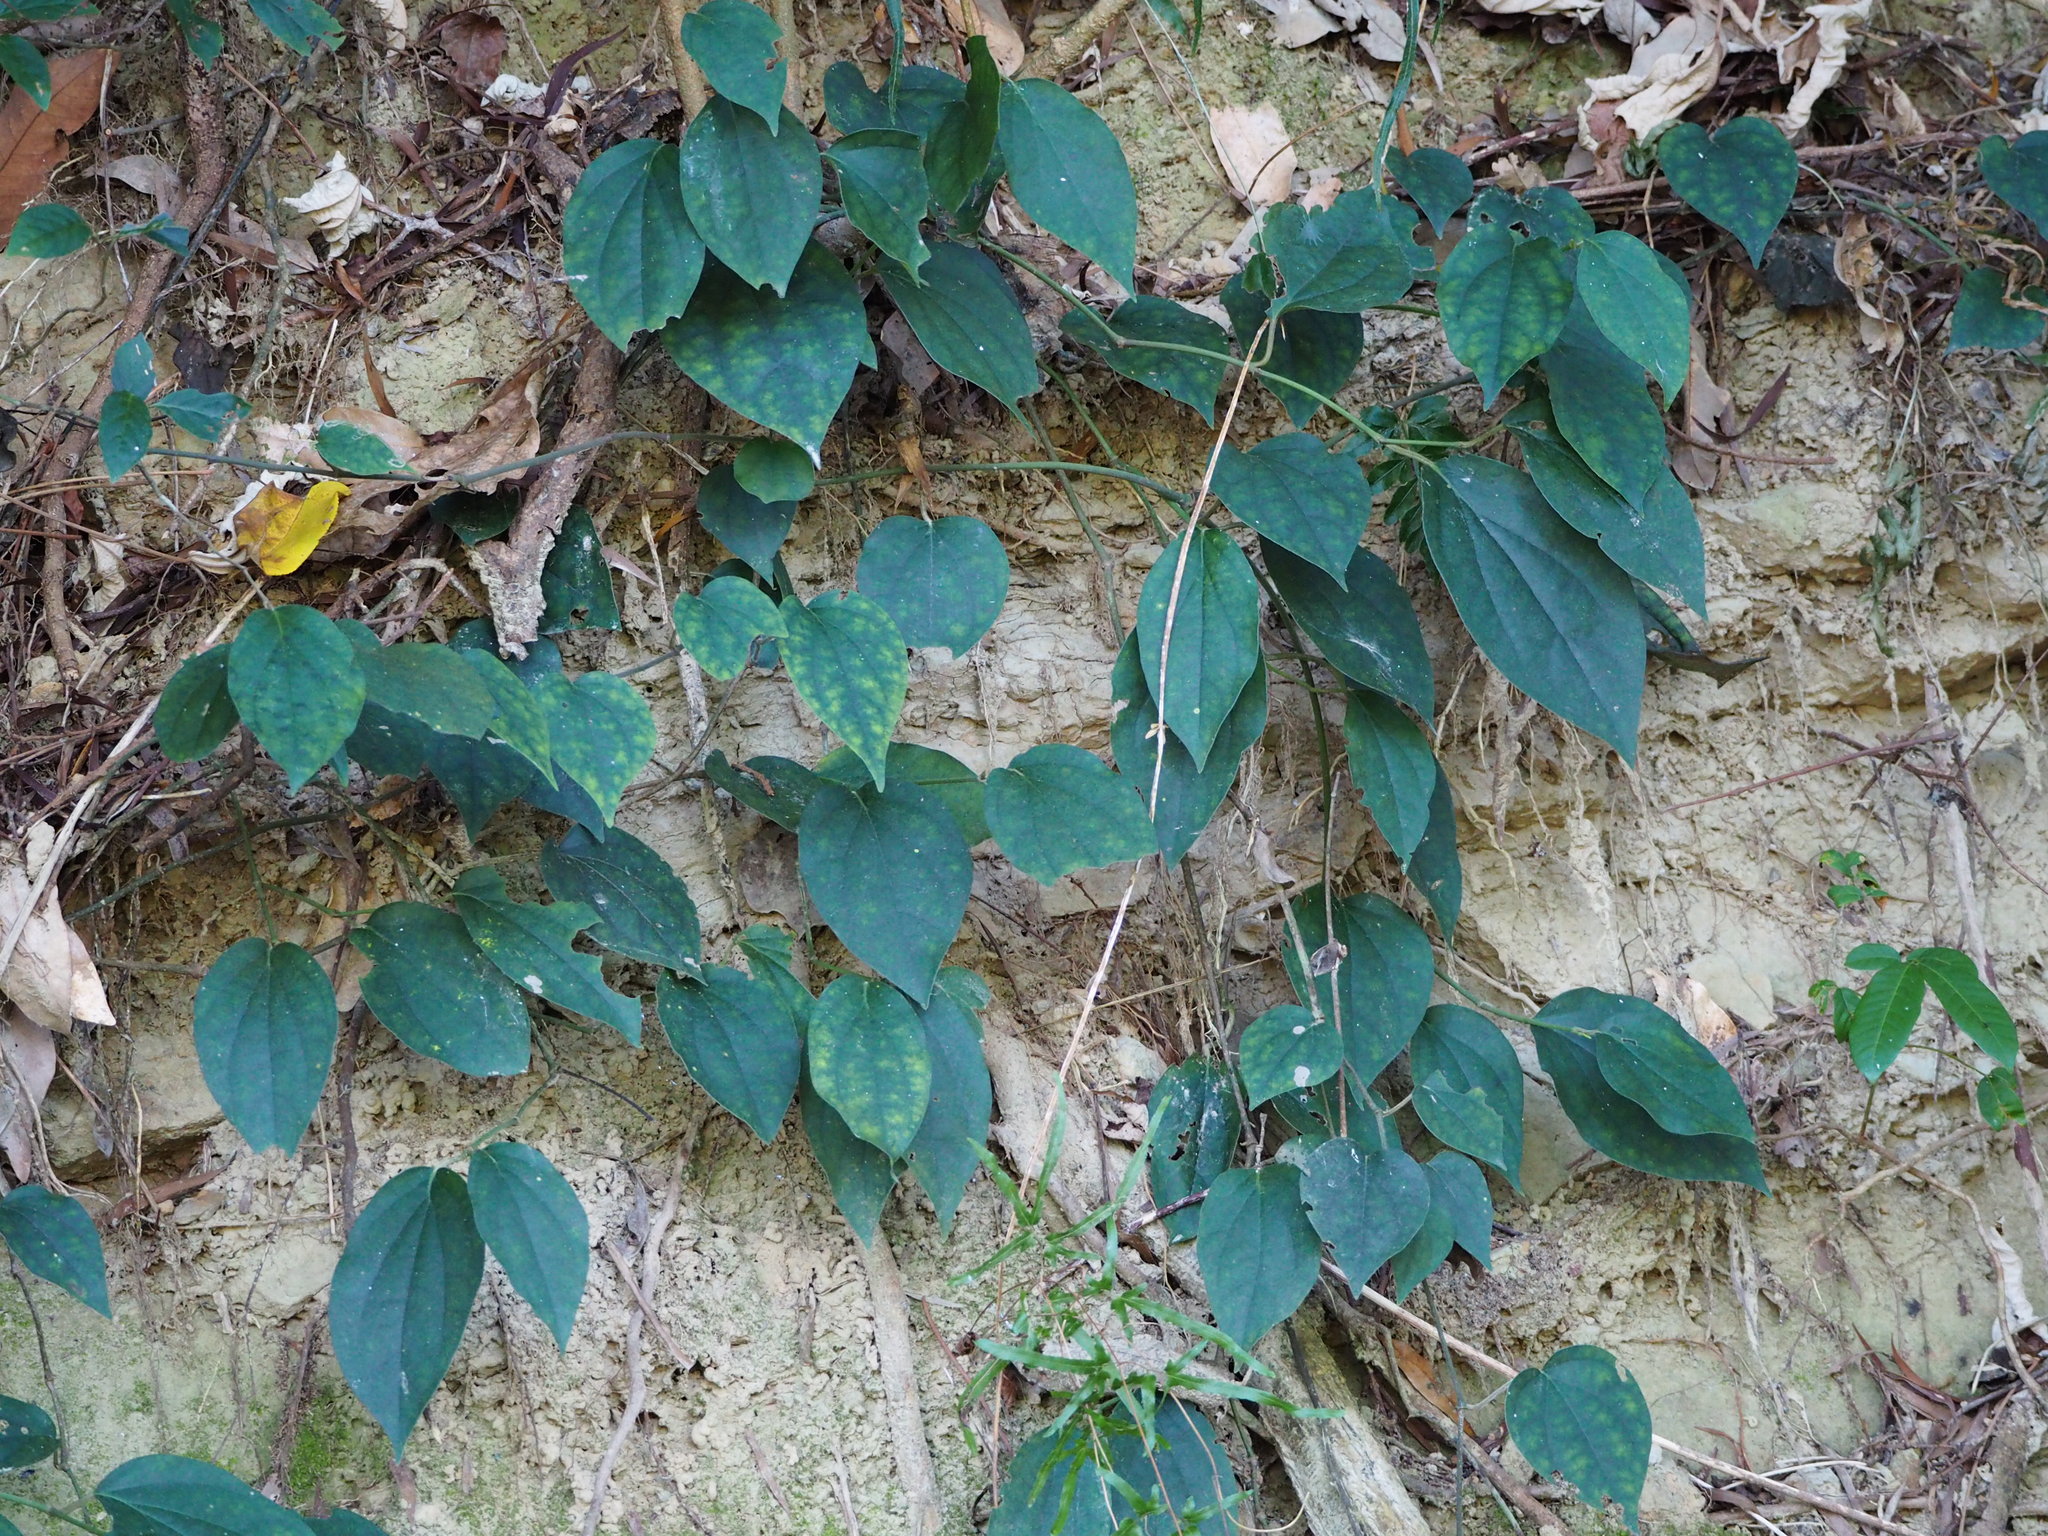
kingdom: Plantae
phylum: Tracheophyta
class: Magnoliopsida
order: Piperales
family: Piperaceae
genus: Piper
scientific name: Piper kadsura
